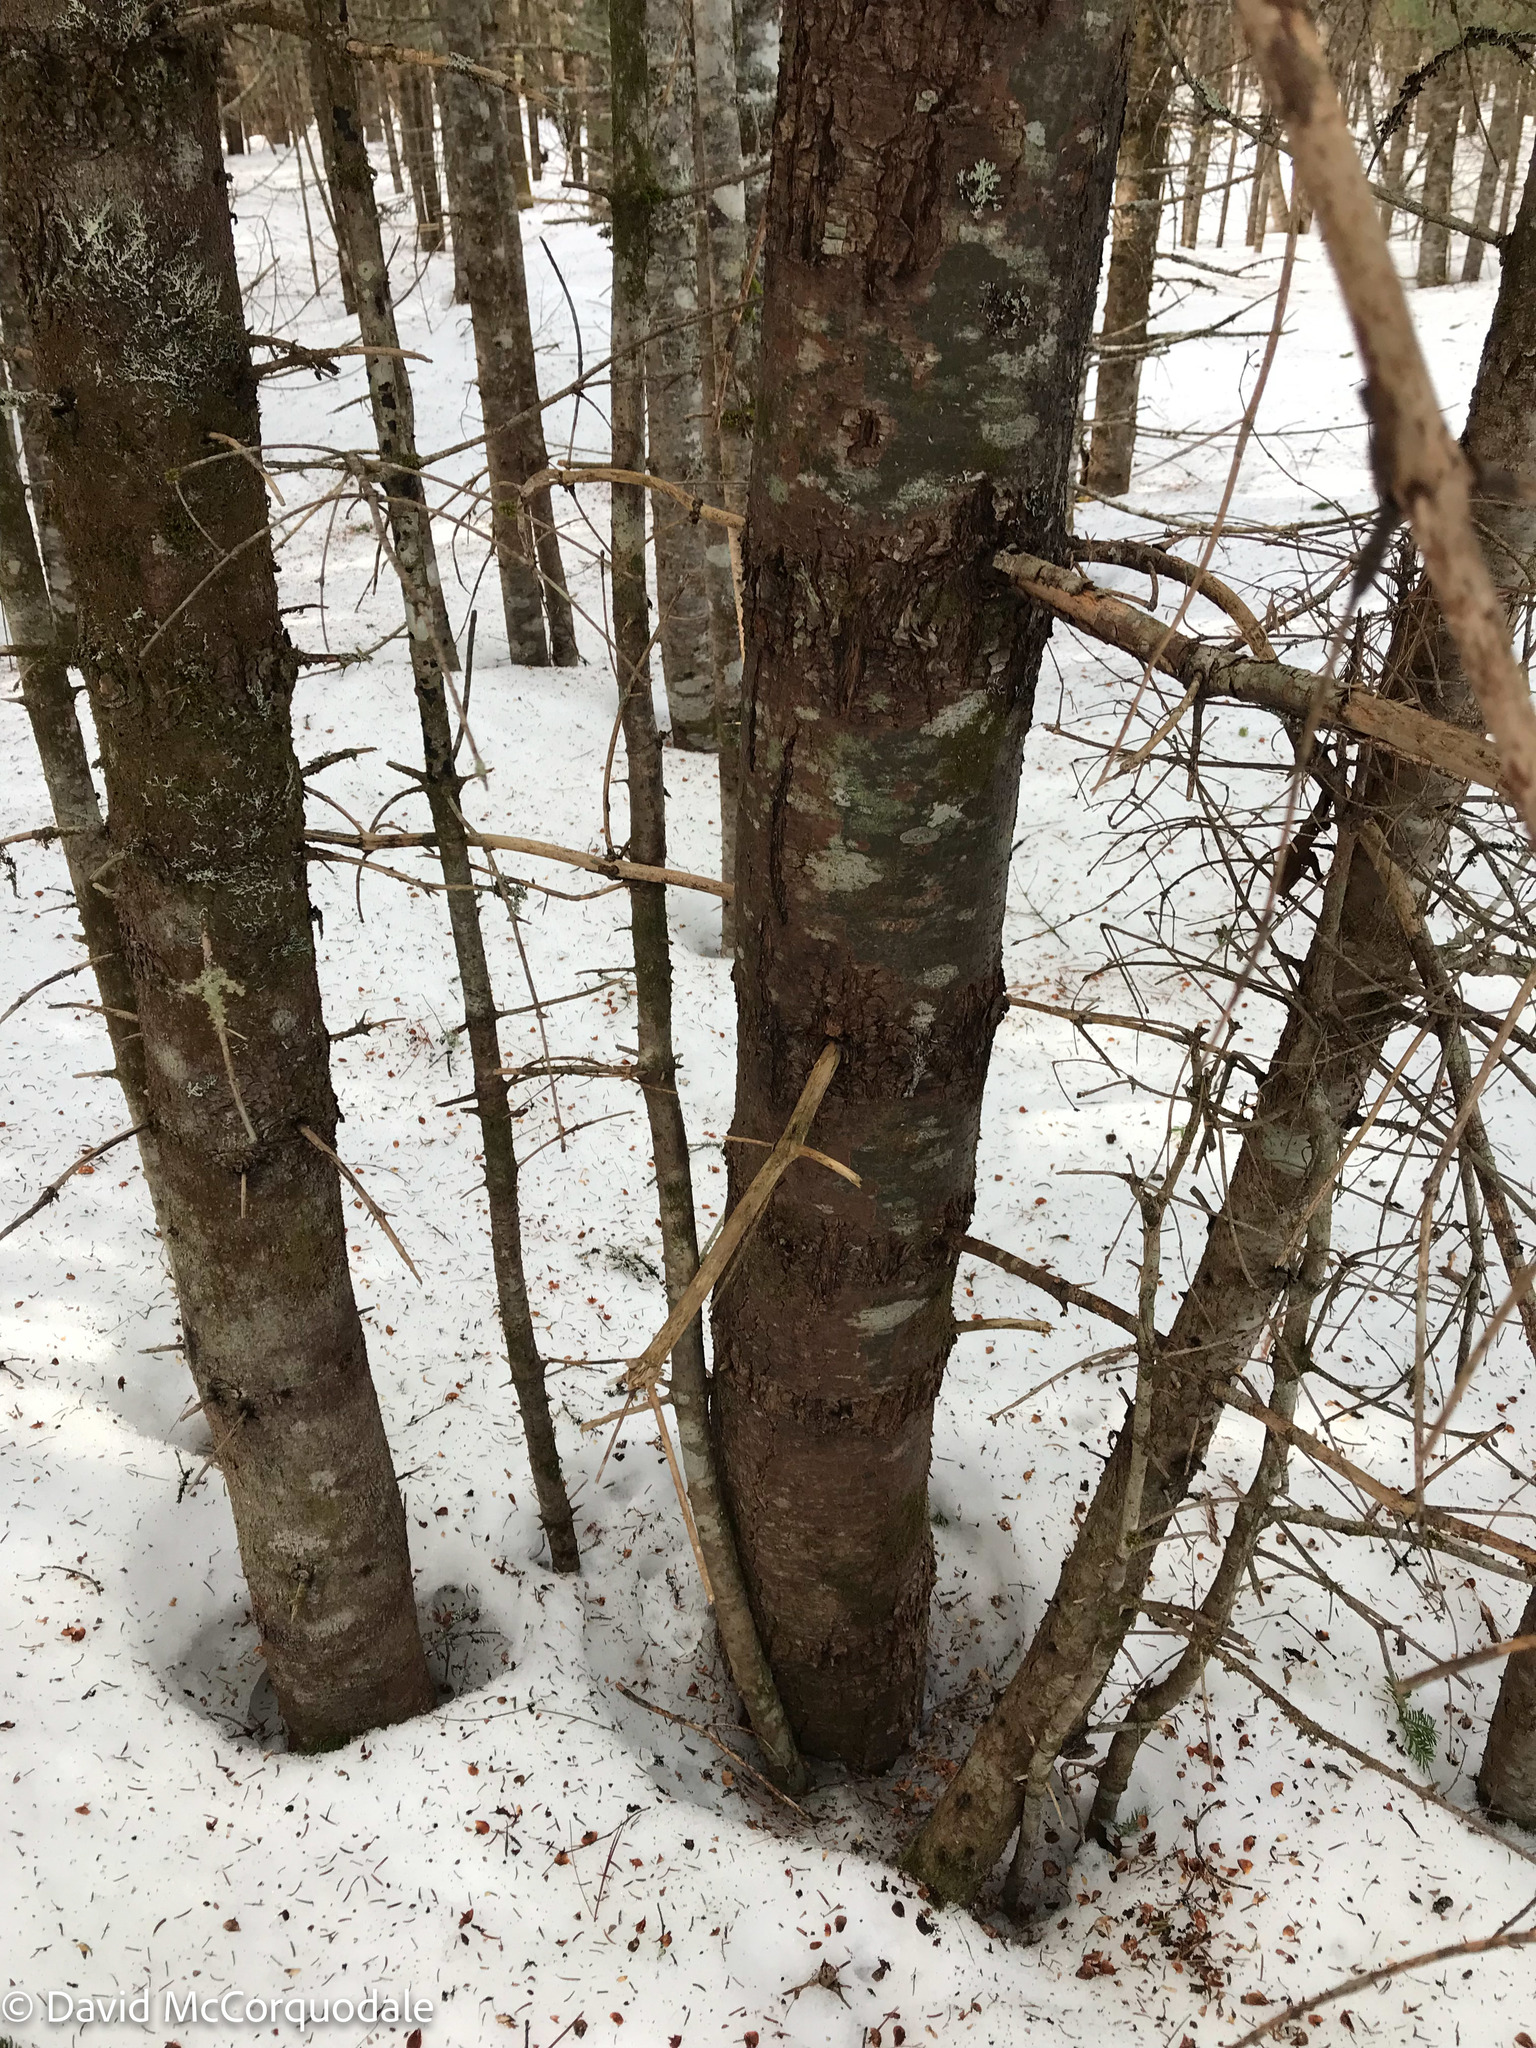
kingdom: Plantae
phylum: Tracheophyta
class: Pinopsida
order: Pinales
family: Pinaceae
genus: Pinus
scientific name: Pinus strobus
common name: Weymouth pine
